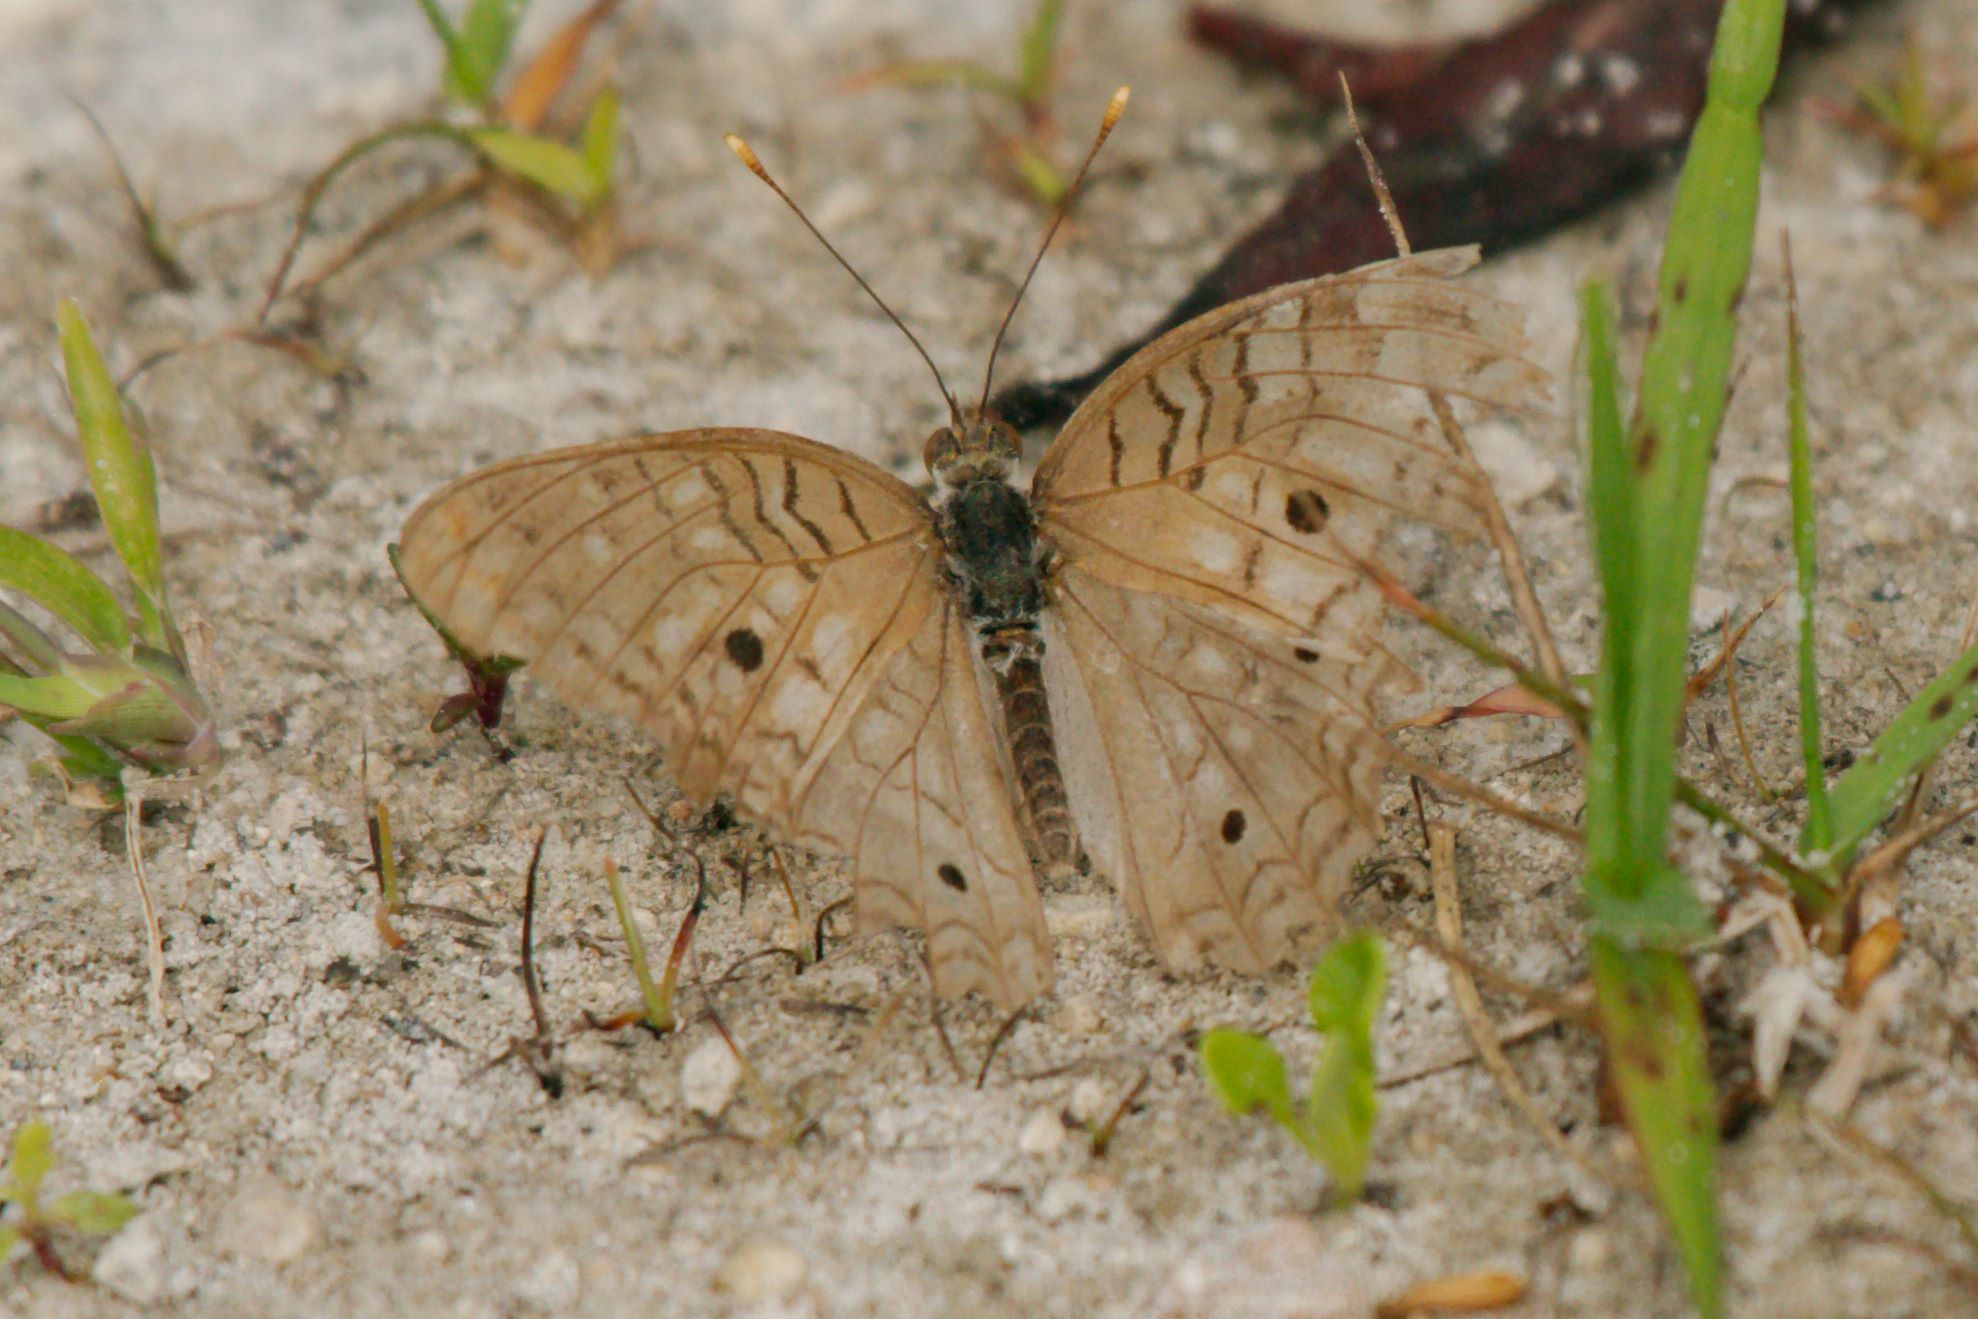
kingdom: Animalia
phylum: Arthropoda
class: Insecta
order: Lepidoptera
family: Nymphalidae
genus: Anartia
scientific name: Anartia jatrophae
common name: White peacock
